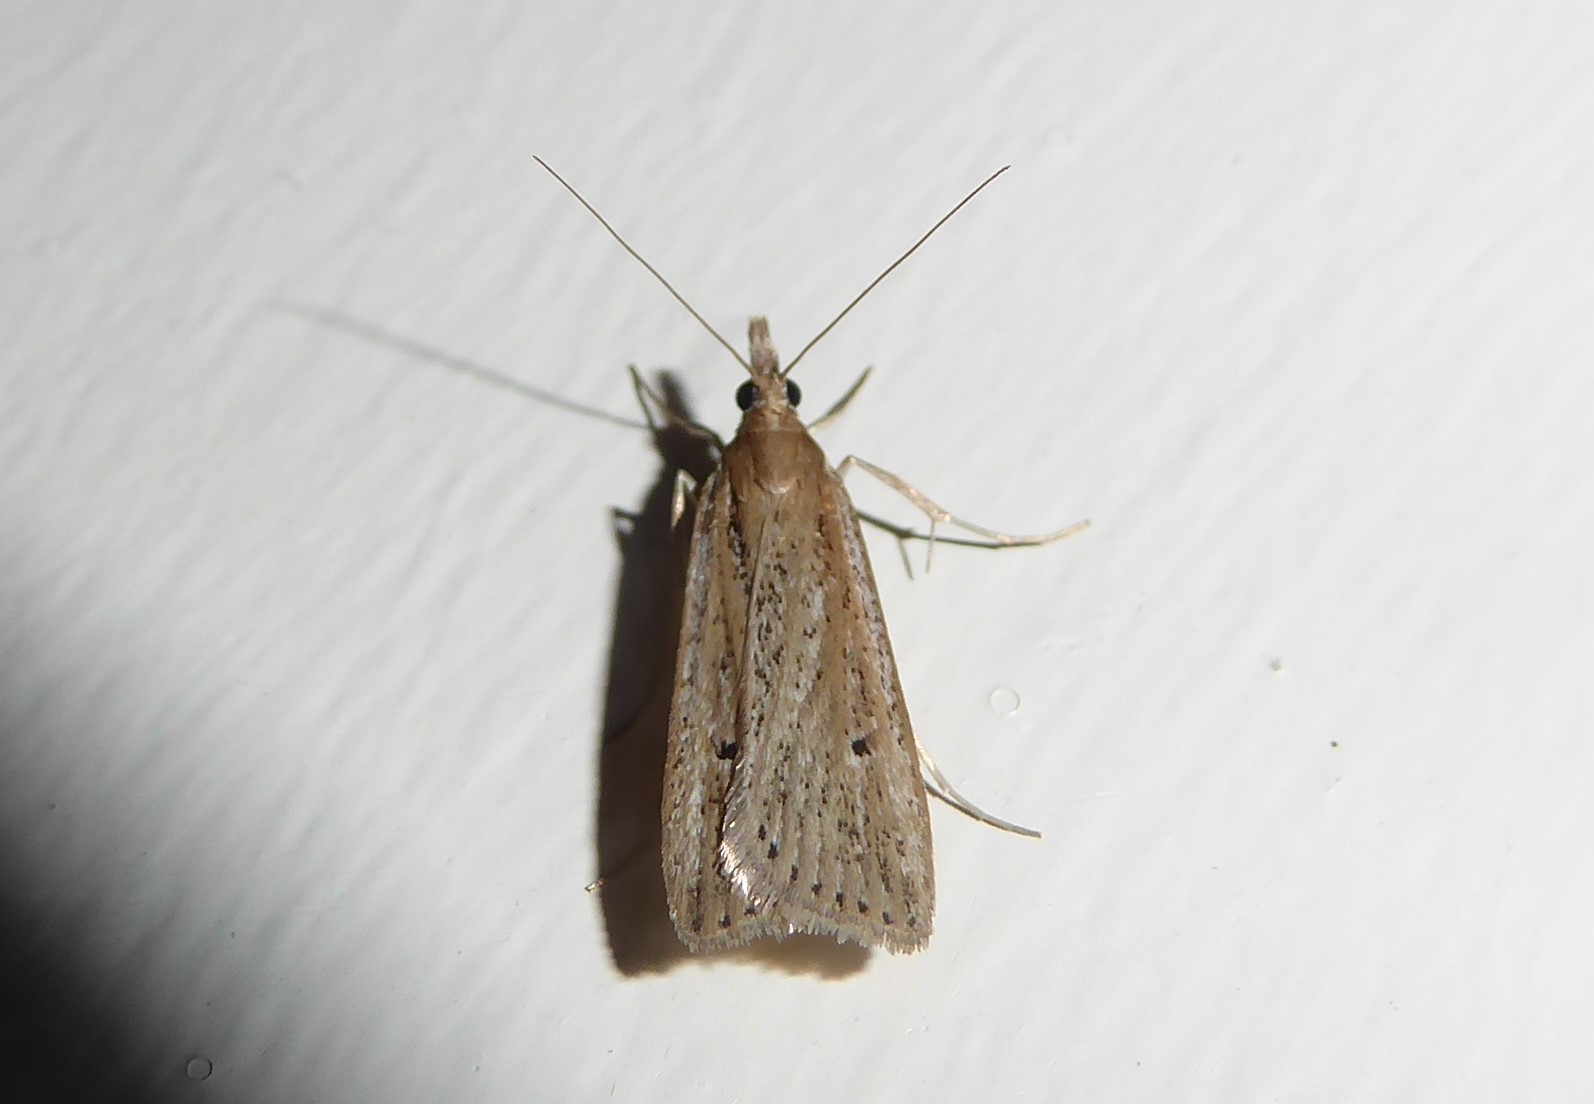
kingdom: Animalia
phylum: Arthropoda
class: Insecta
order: Lepidoptera
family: Crambidae
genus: Eudonia
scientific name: Eudonia sabulosella
